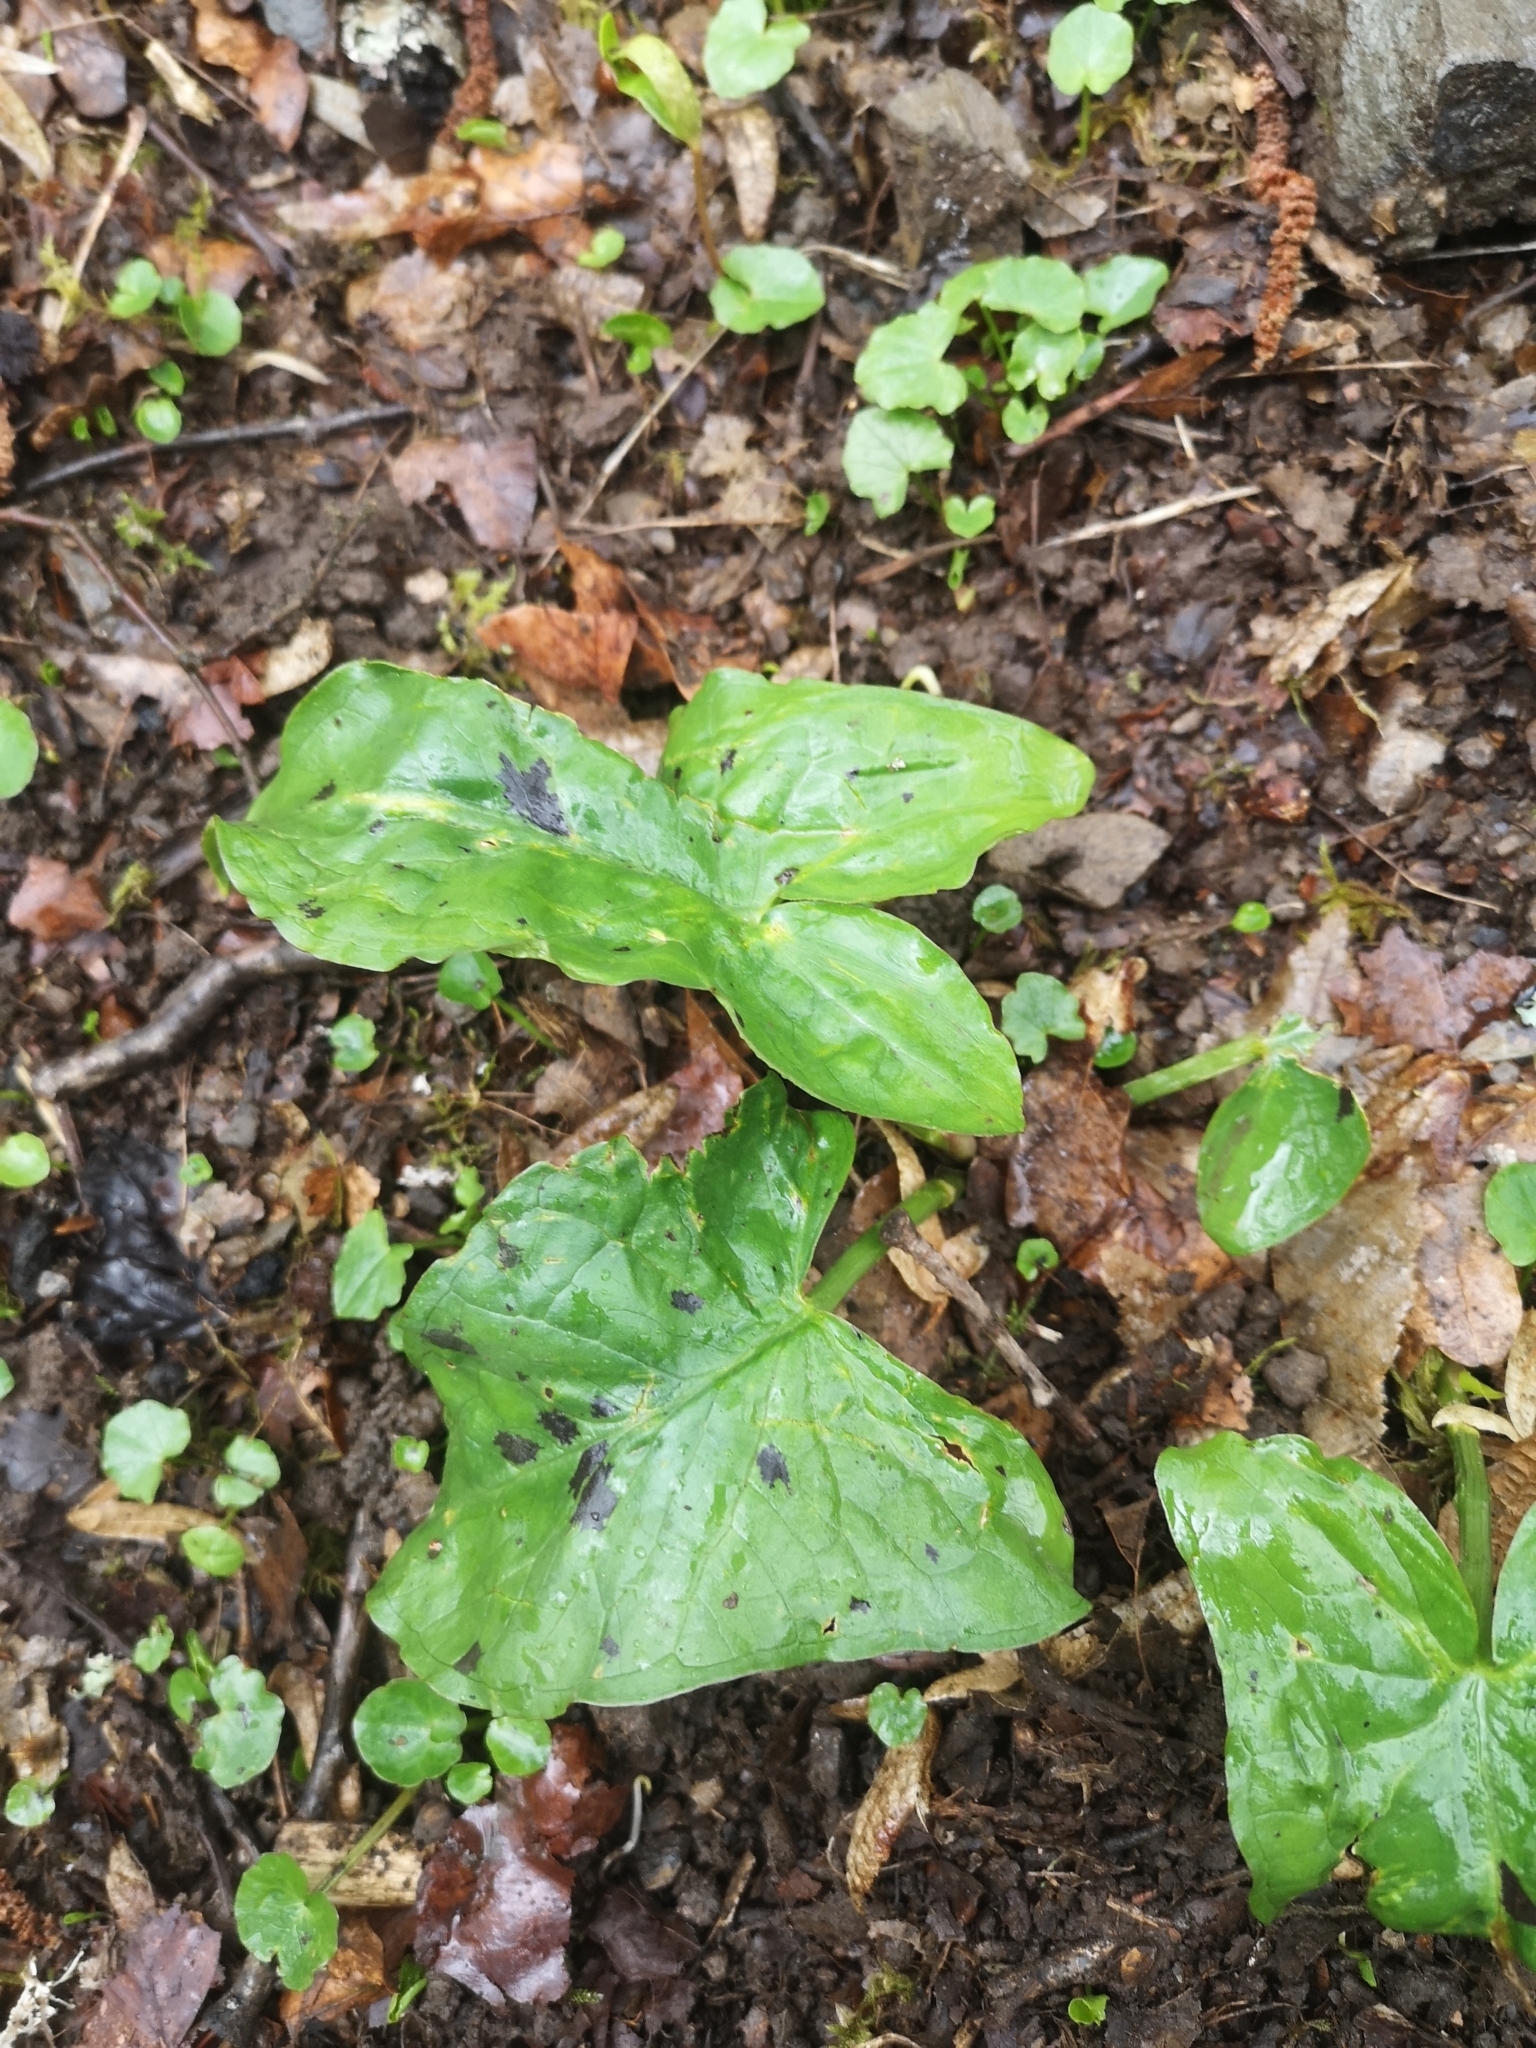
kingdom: Plantae
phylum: Tracheophyta
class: Liliopsida
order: Alismatales
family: Araceae
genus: Arum
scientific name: Arum maculatum
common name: Lords-and-ladies
